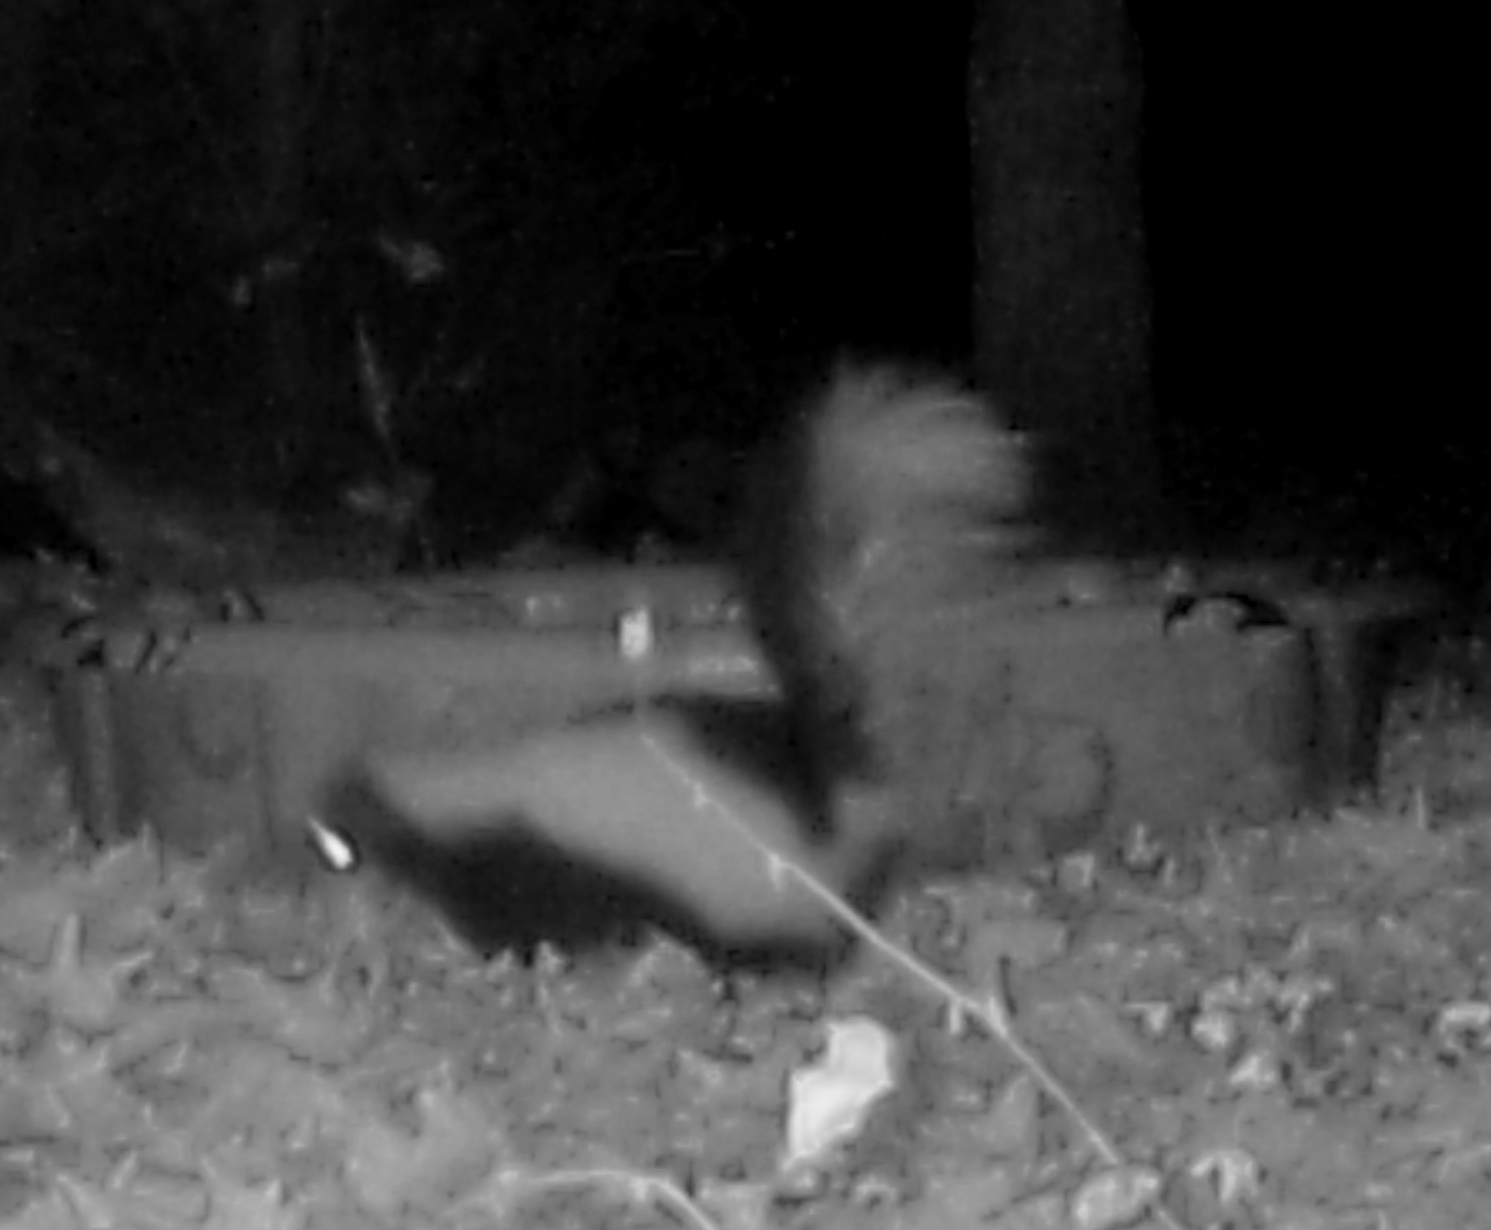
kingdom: Animalia
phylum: Chordata
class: Mammalia
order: Carnivora
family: Mephitidae
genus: Mephitis
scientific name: Mephitis mephitis
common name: Striped skunk
